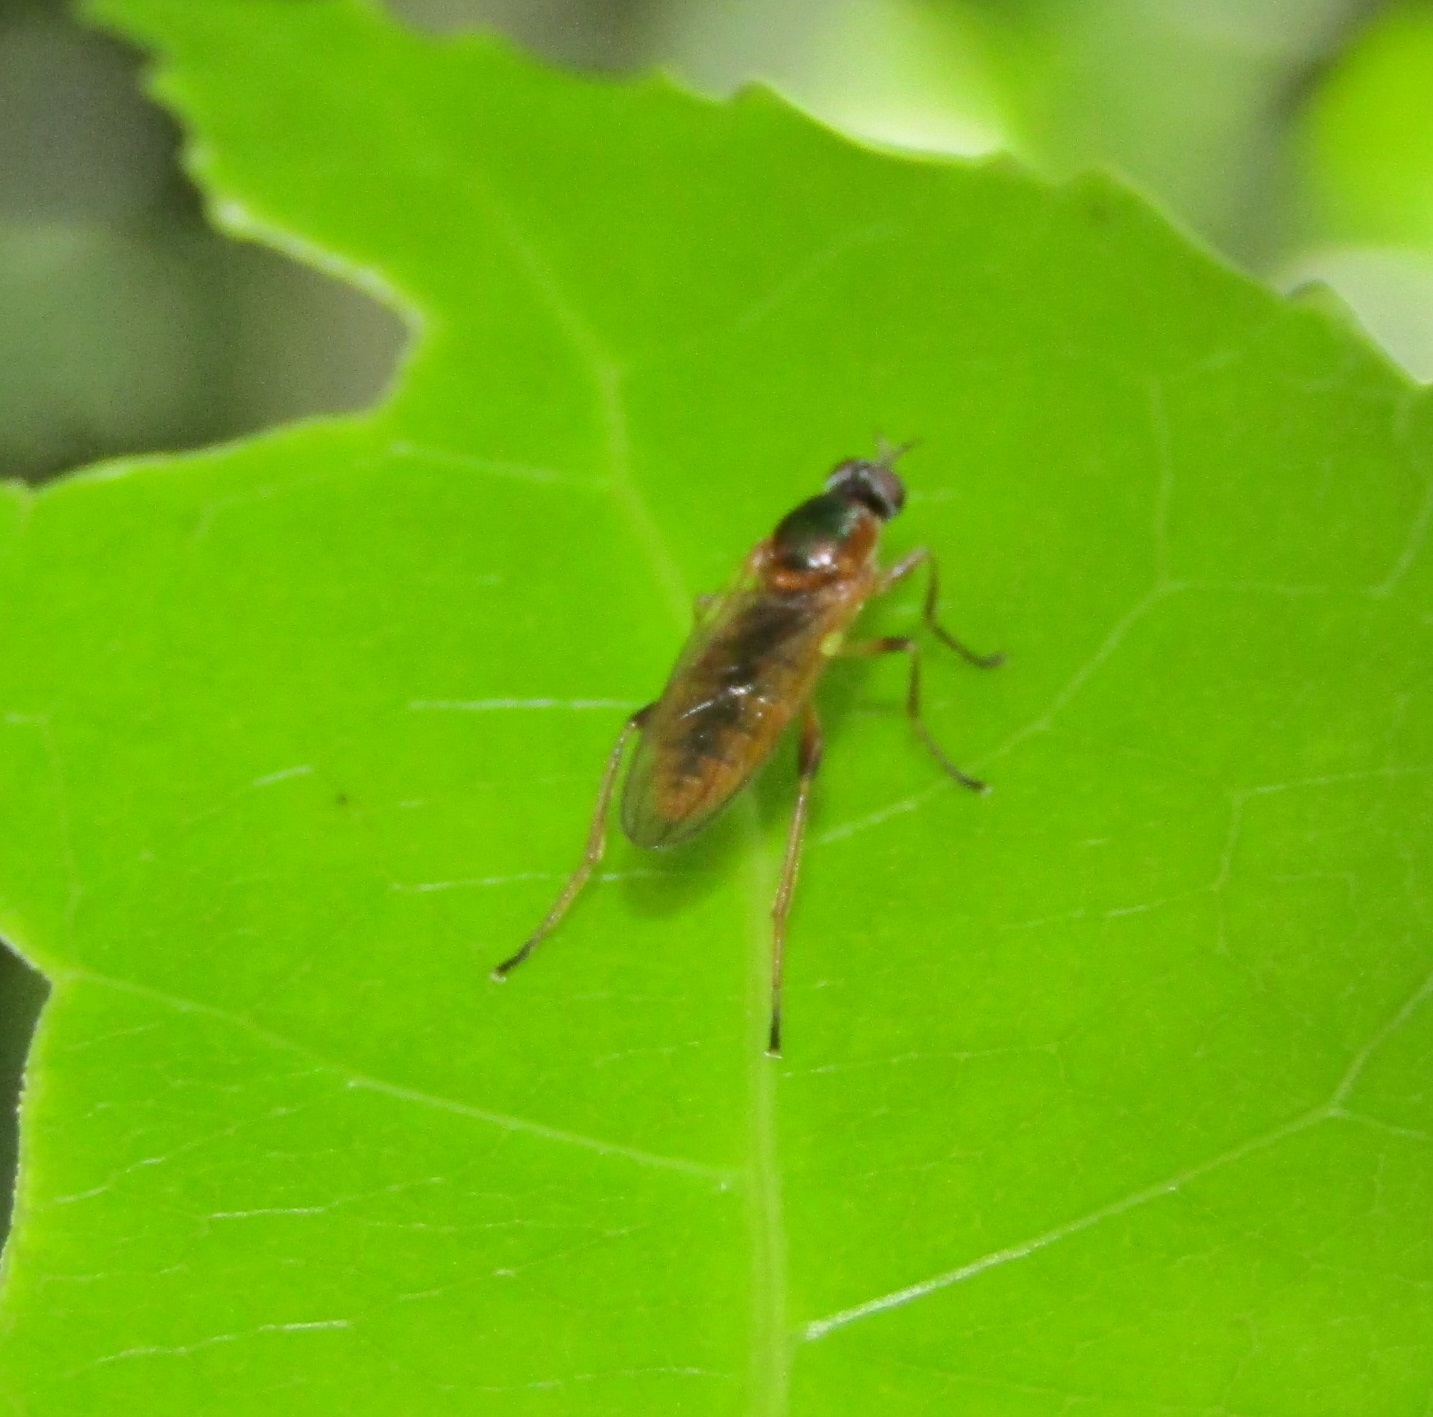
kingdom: Animalia
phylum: Arthropoda
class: Insecta
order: Diptera
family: Stratiomyidae
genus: Neactina
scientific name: Neactina opposita
